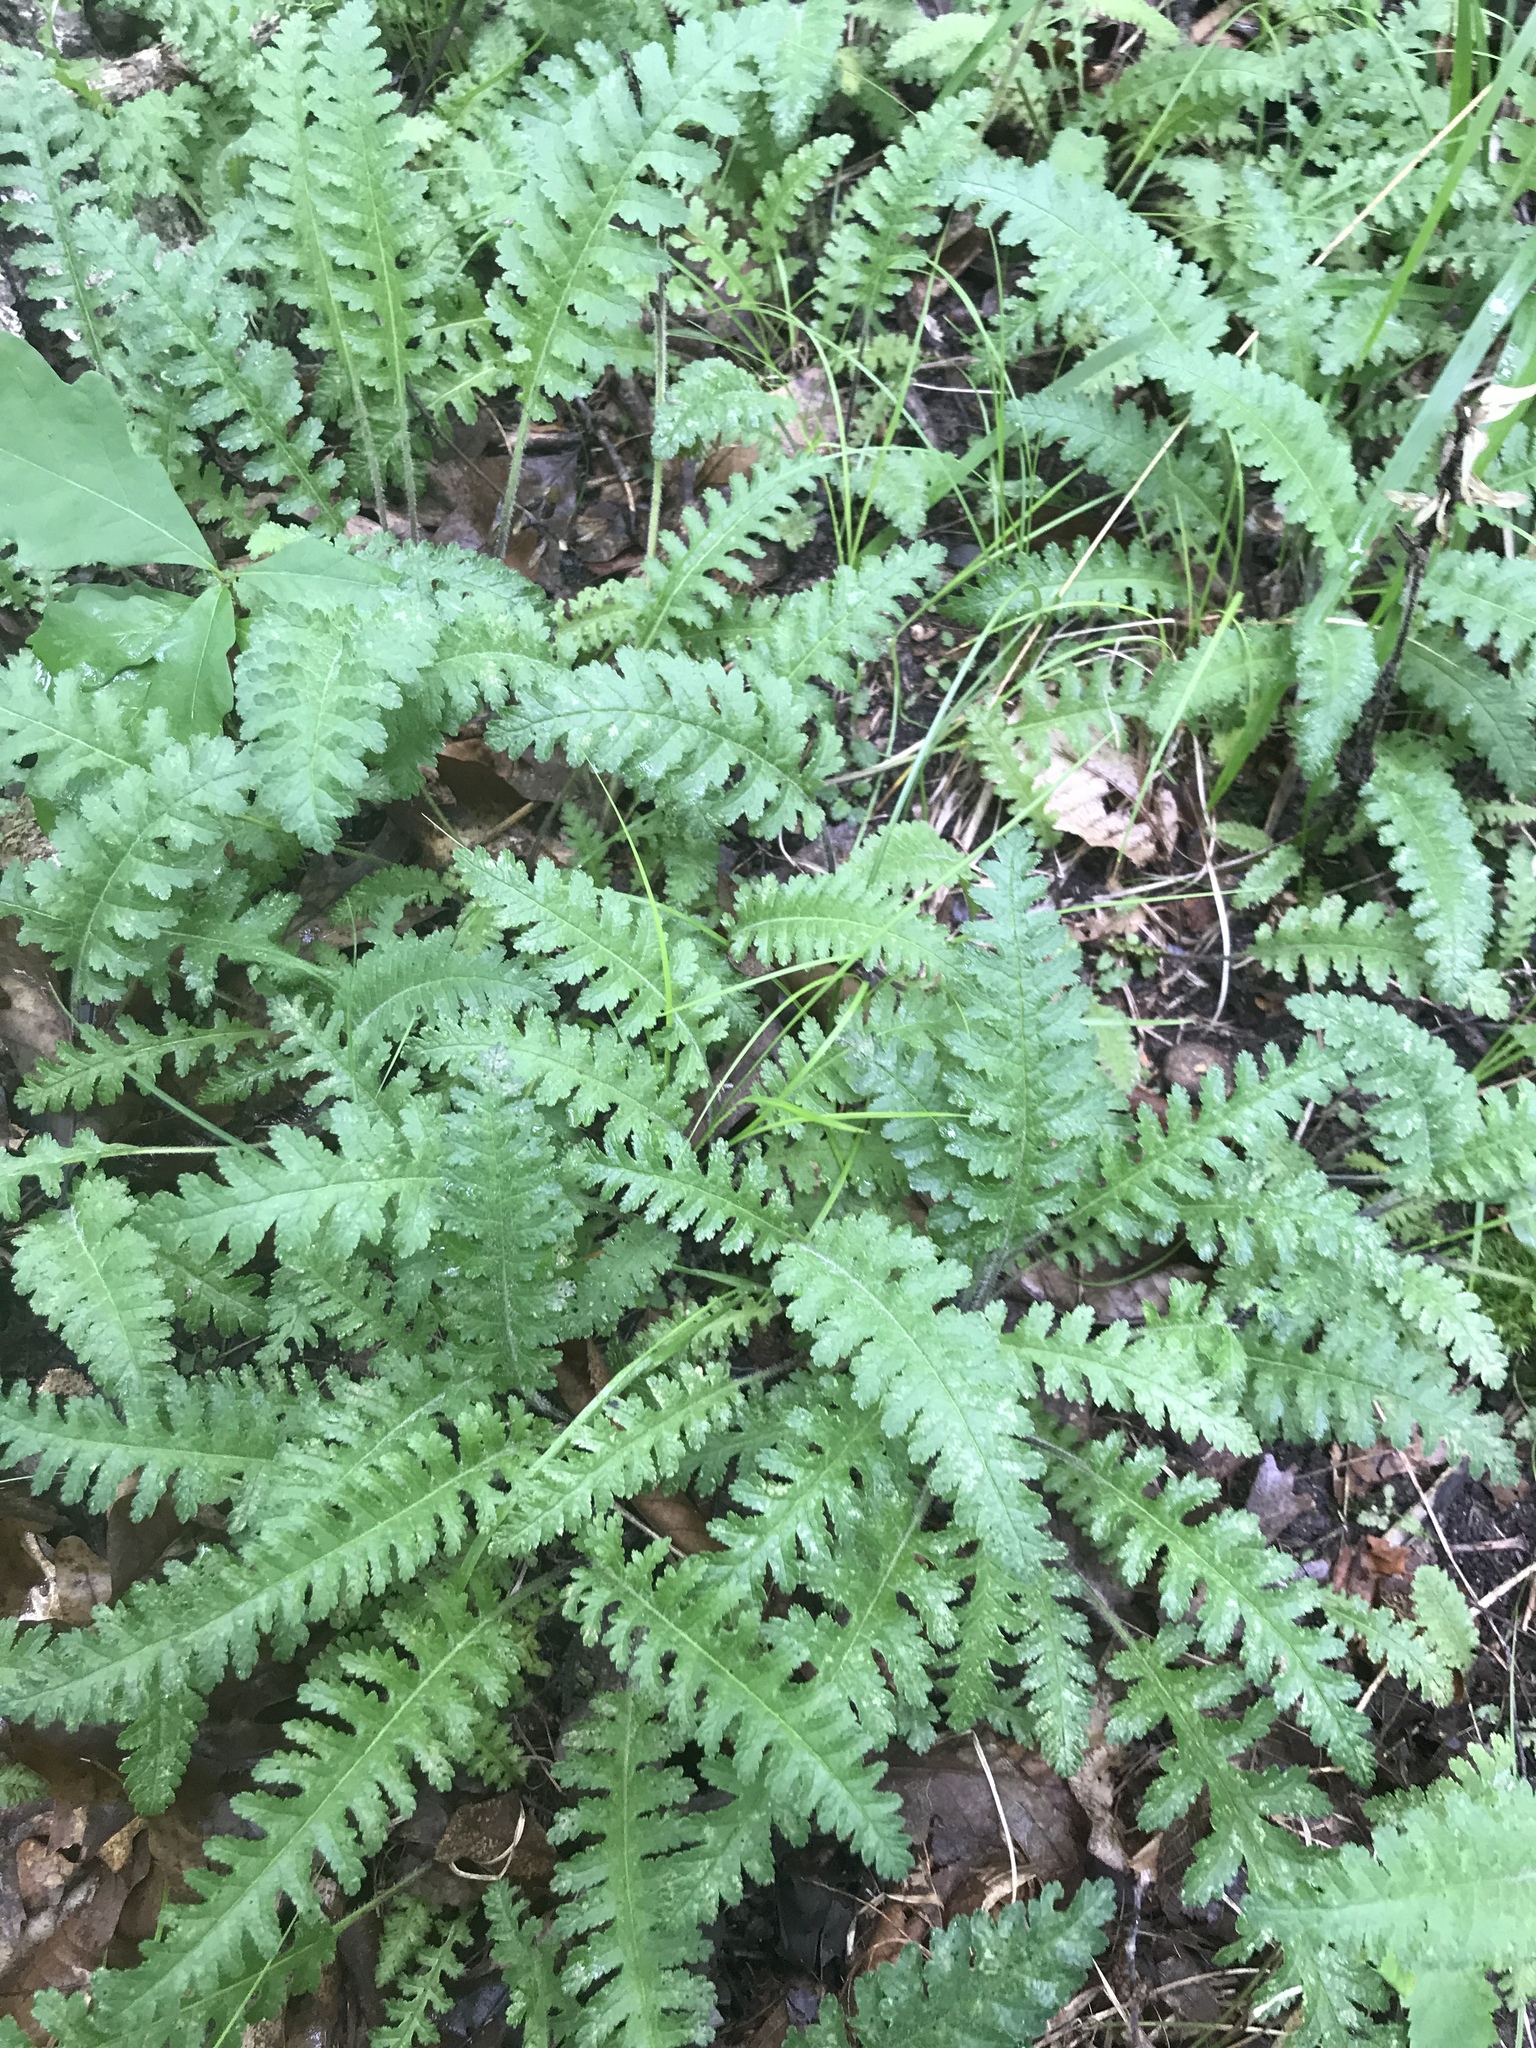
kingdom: Plantae
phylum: Tracheophyta
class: Magnoliopsida
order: Lamiales
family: Orobanchaceae
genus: Pedicularis
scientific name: Pedicularis canadensis
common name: Early lousewort
